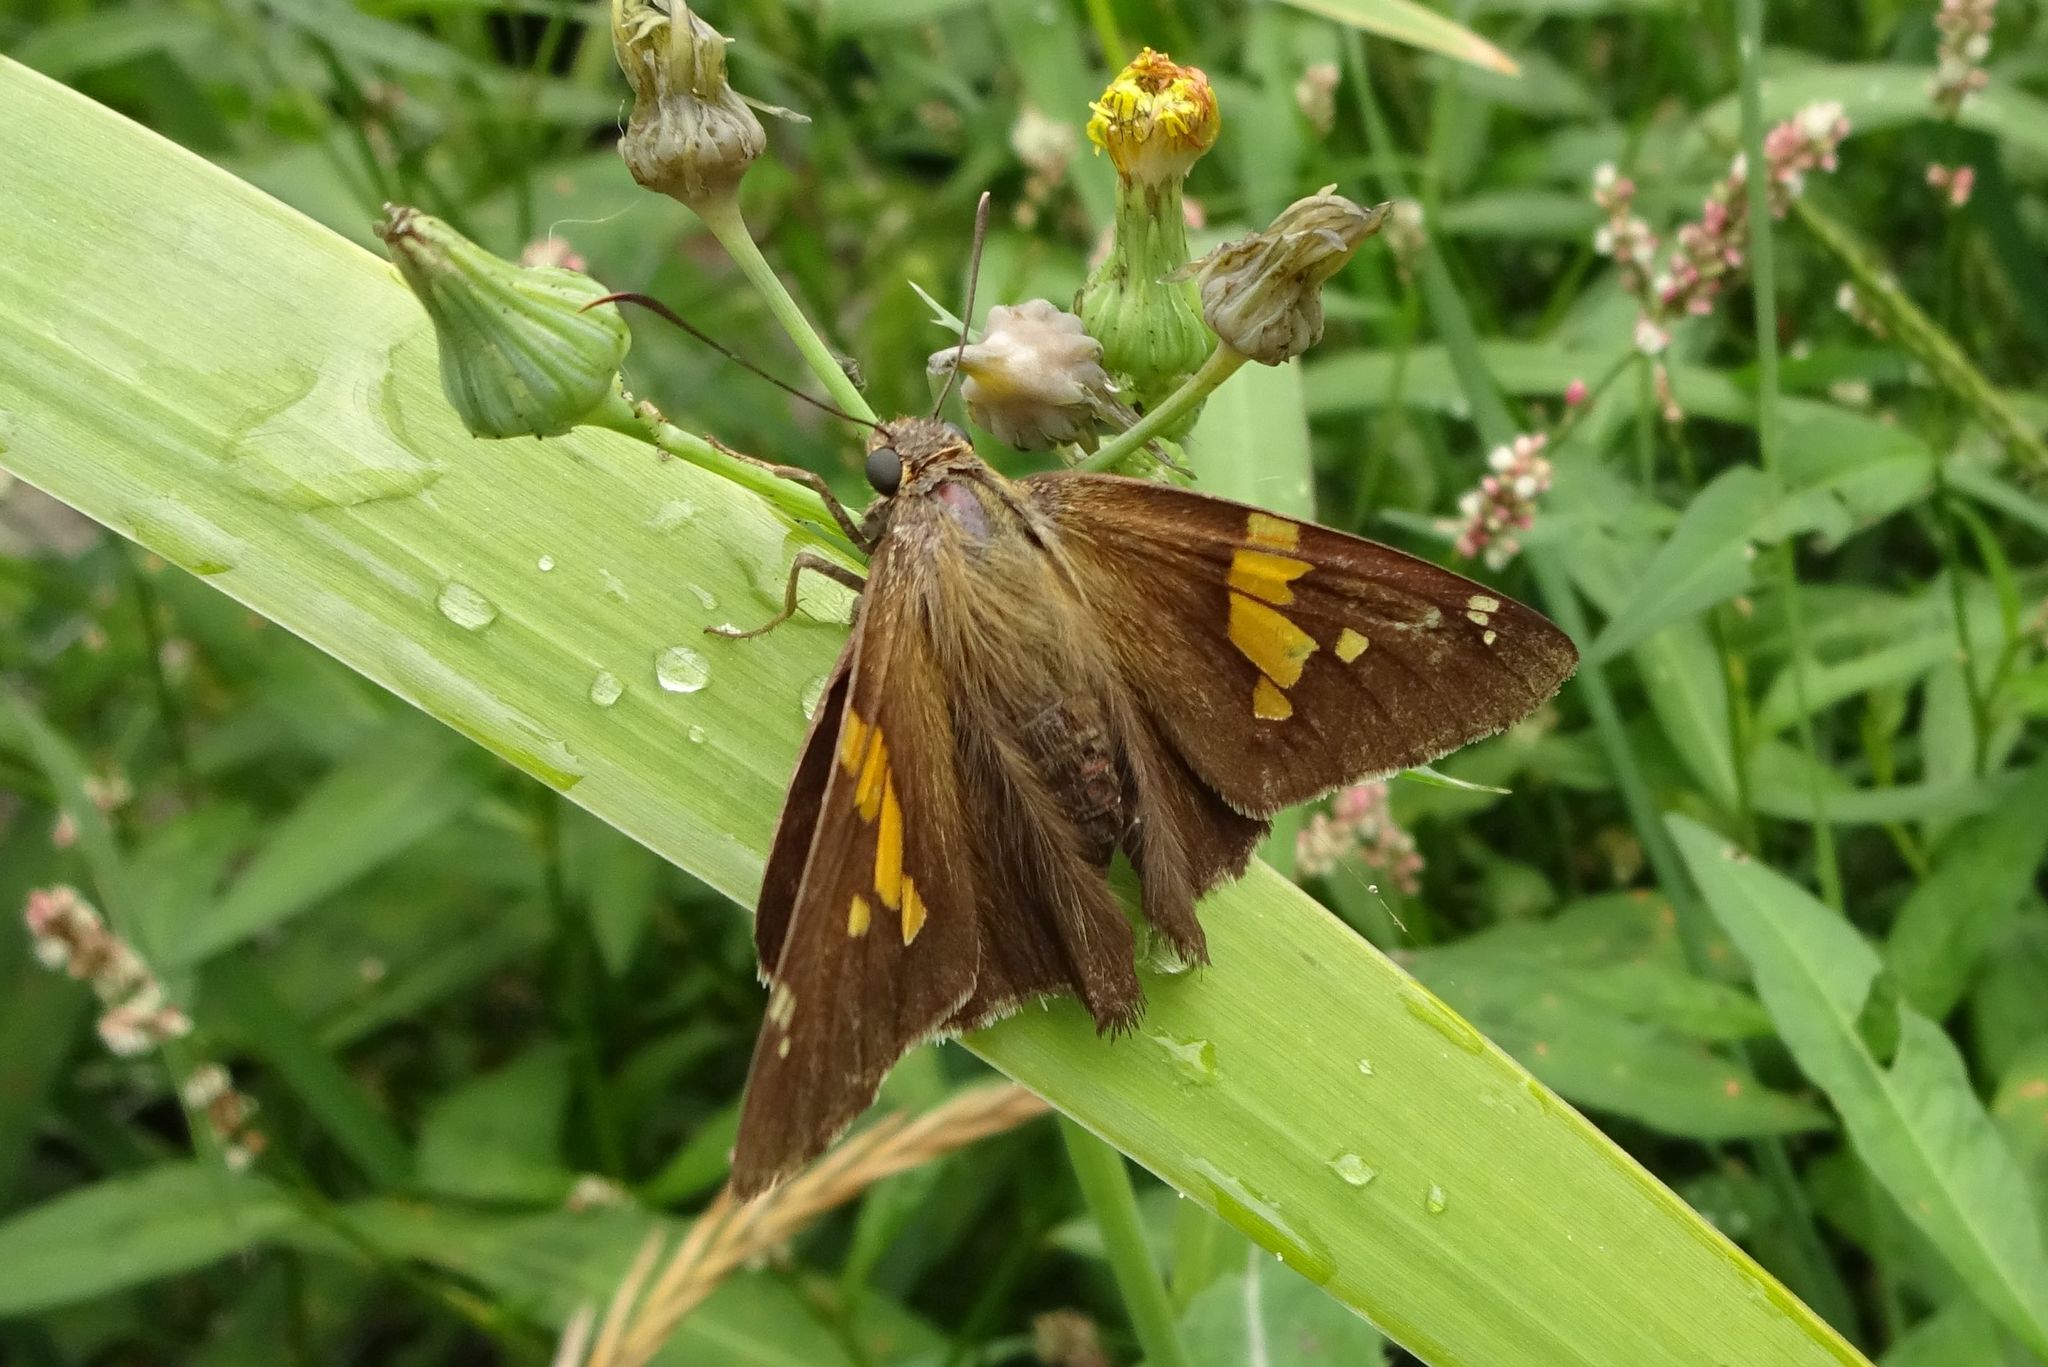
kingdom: Animalia
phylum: Arthropoda
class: Insecta
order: Lepidoptera
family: Hesperiidae
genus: Epargyreus
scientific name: Epargyreus clarus
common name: Silver-spotted skipper
